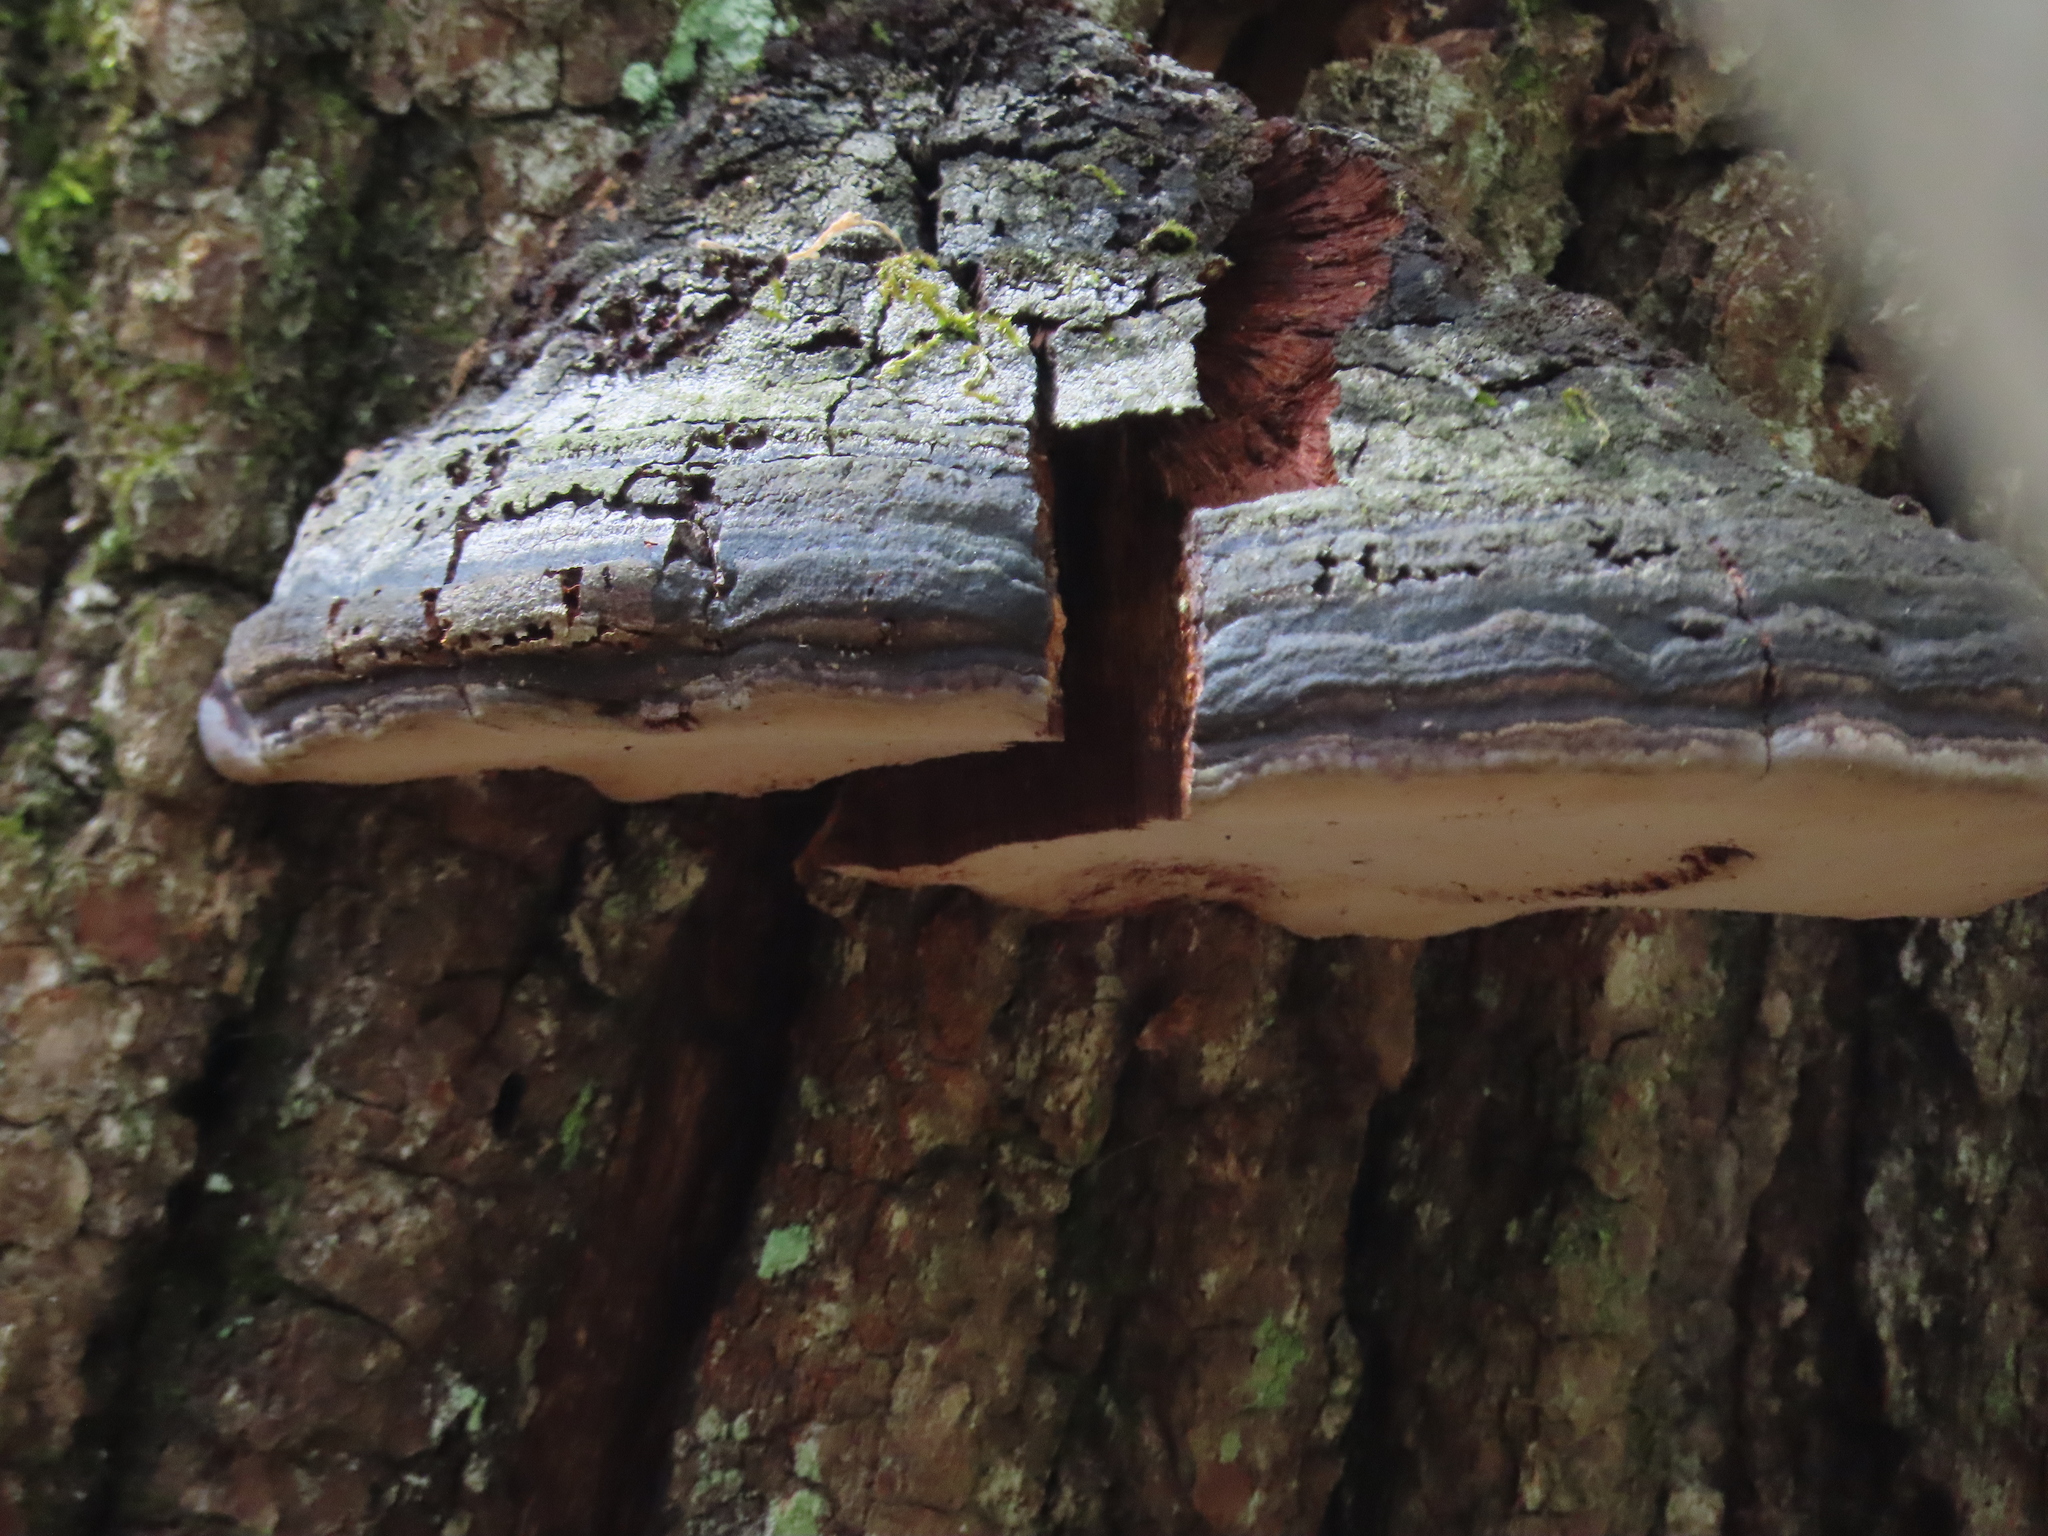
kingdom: Fungi
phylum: Basidiomycota
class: Agaricomycetes
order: Hymenochaetales
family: Hymenochaetaceae
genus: Phellinus
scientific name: Phellinus robiniae
